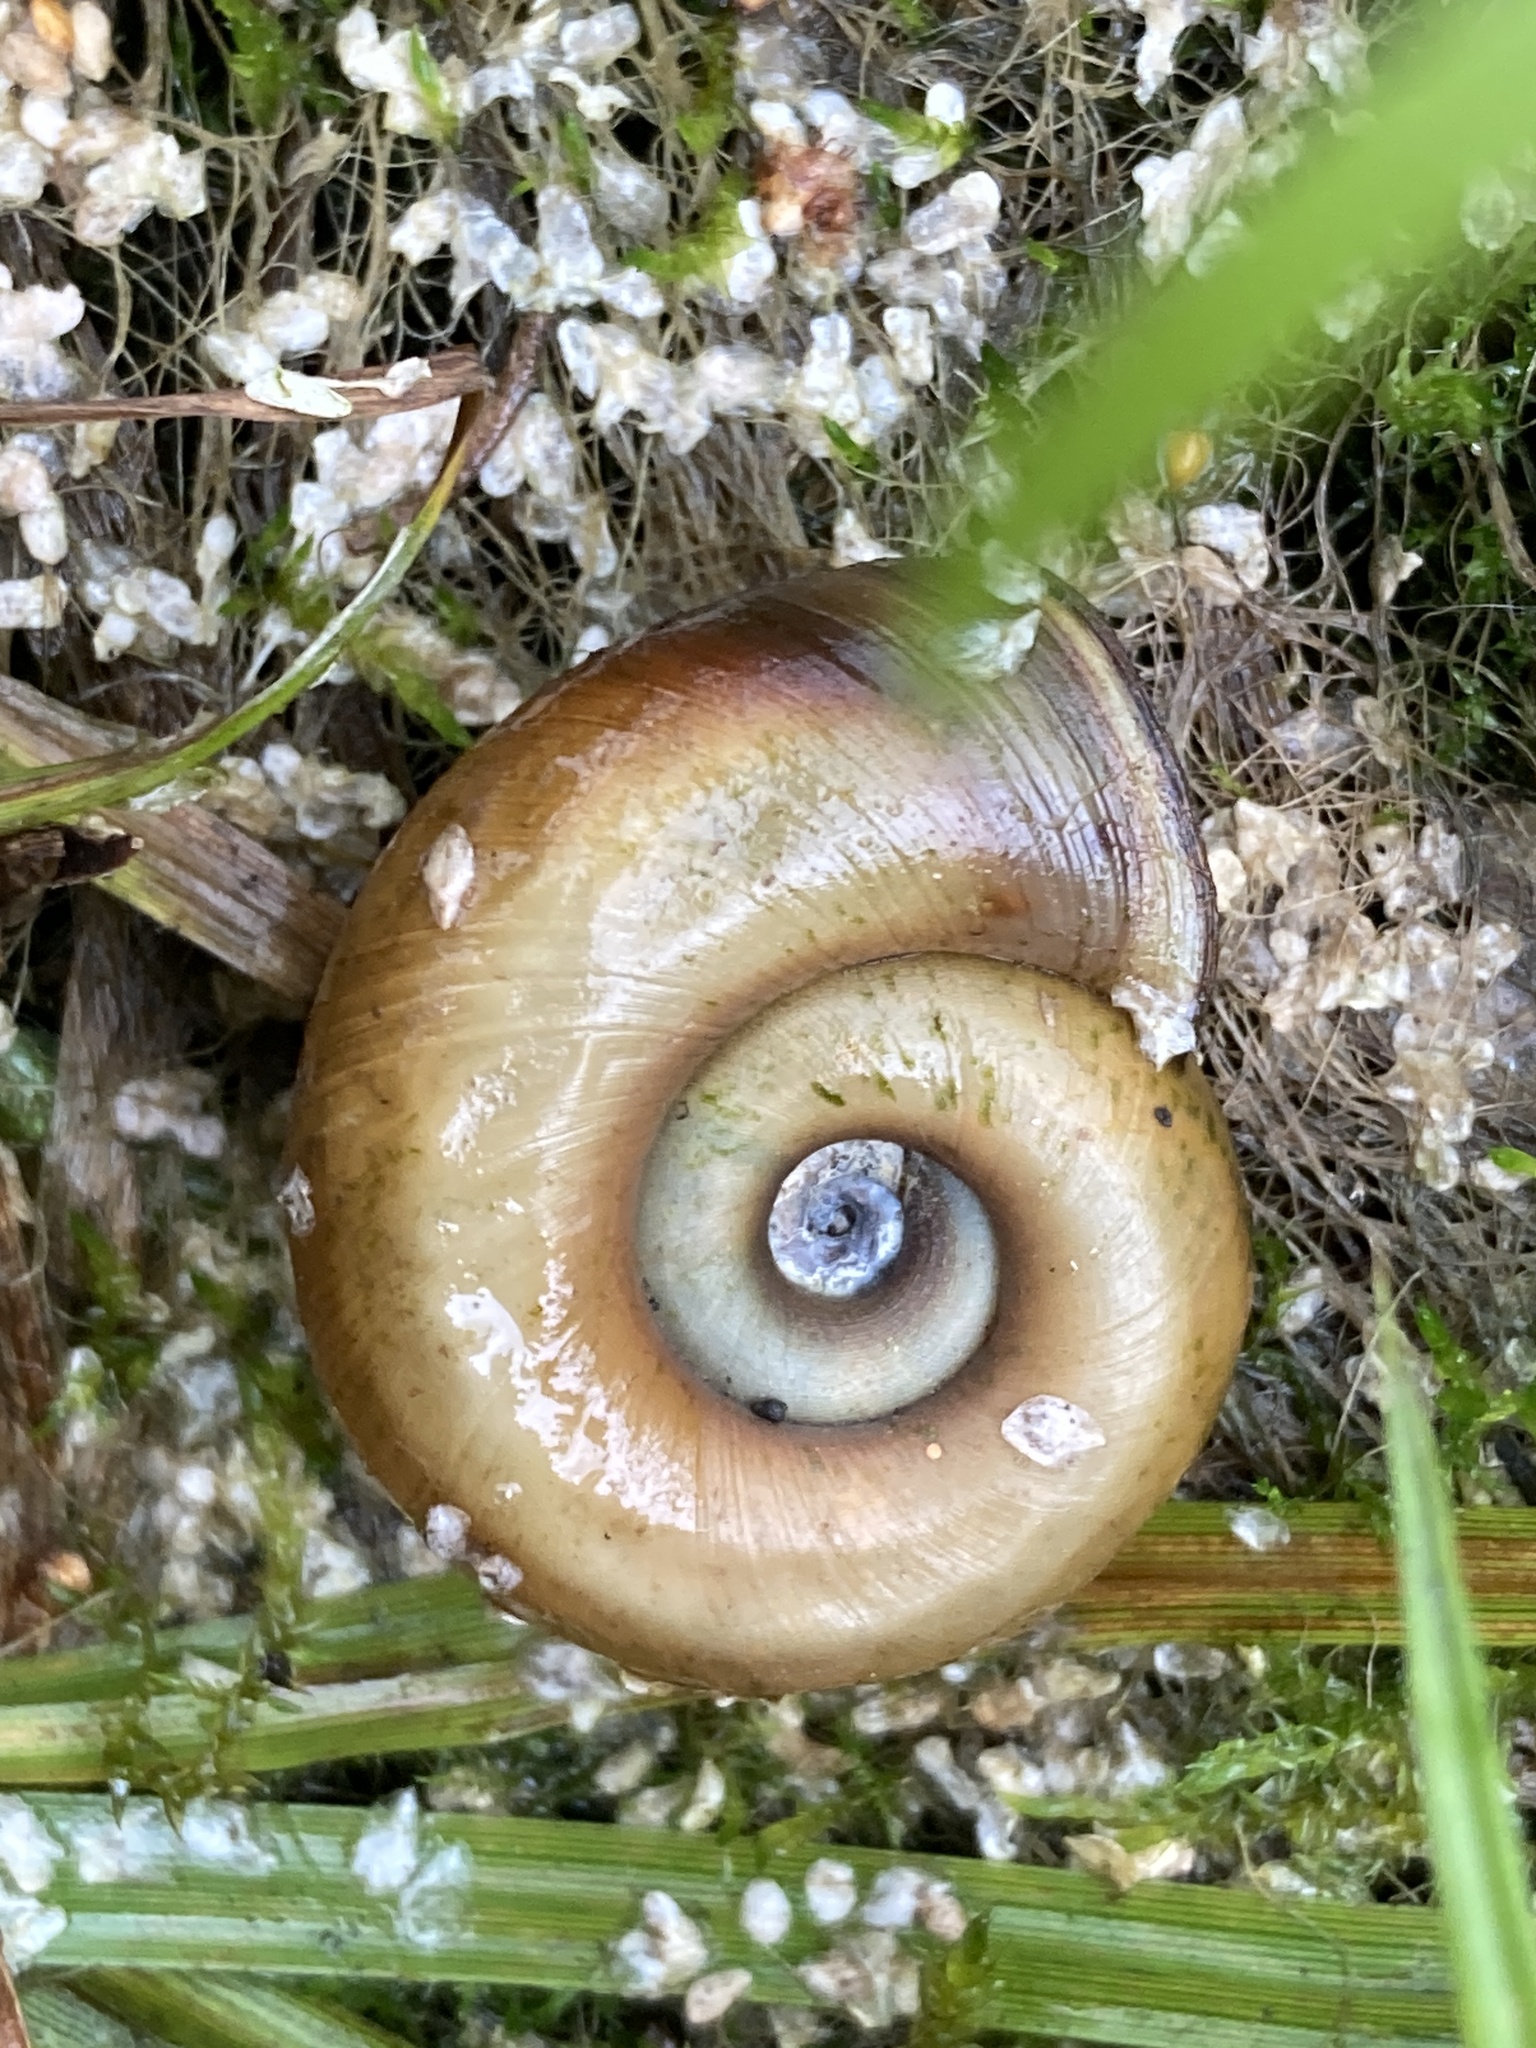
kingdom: Animalia
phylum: Mollusca
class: Gastropoda
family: Planorbidae
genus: Planorbarius
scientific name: Planorbarius corneus
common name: Great ramshorn
